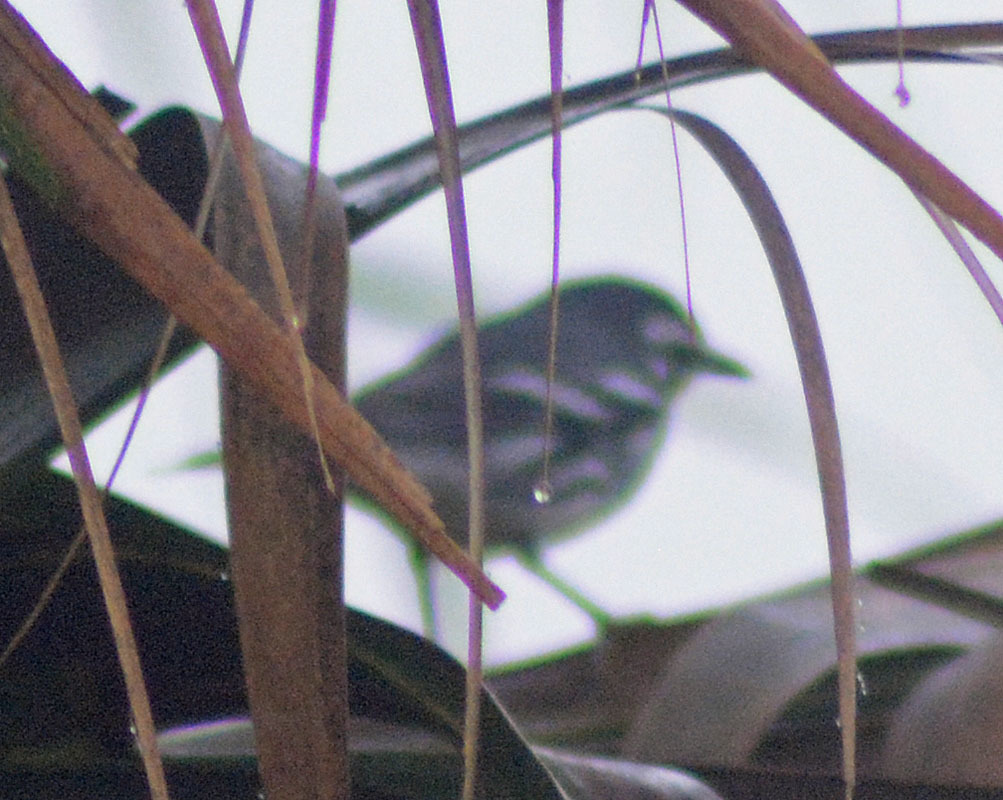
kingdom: Animalia
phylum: Chordata
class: Aves
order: Passeriformes
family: Parulidae
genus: Setophaga
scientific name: Setophaga dominica
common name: Yellow-throated warbler
